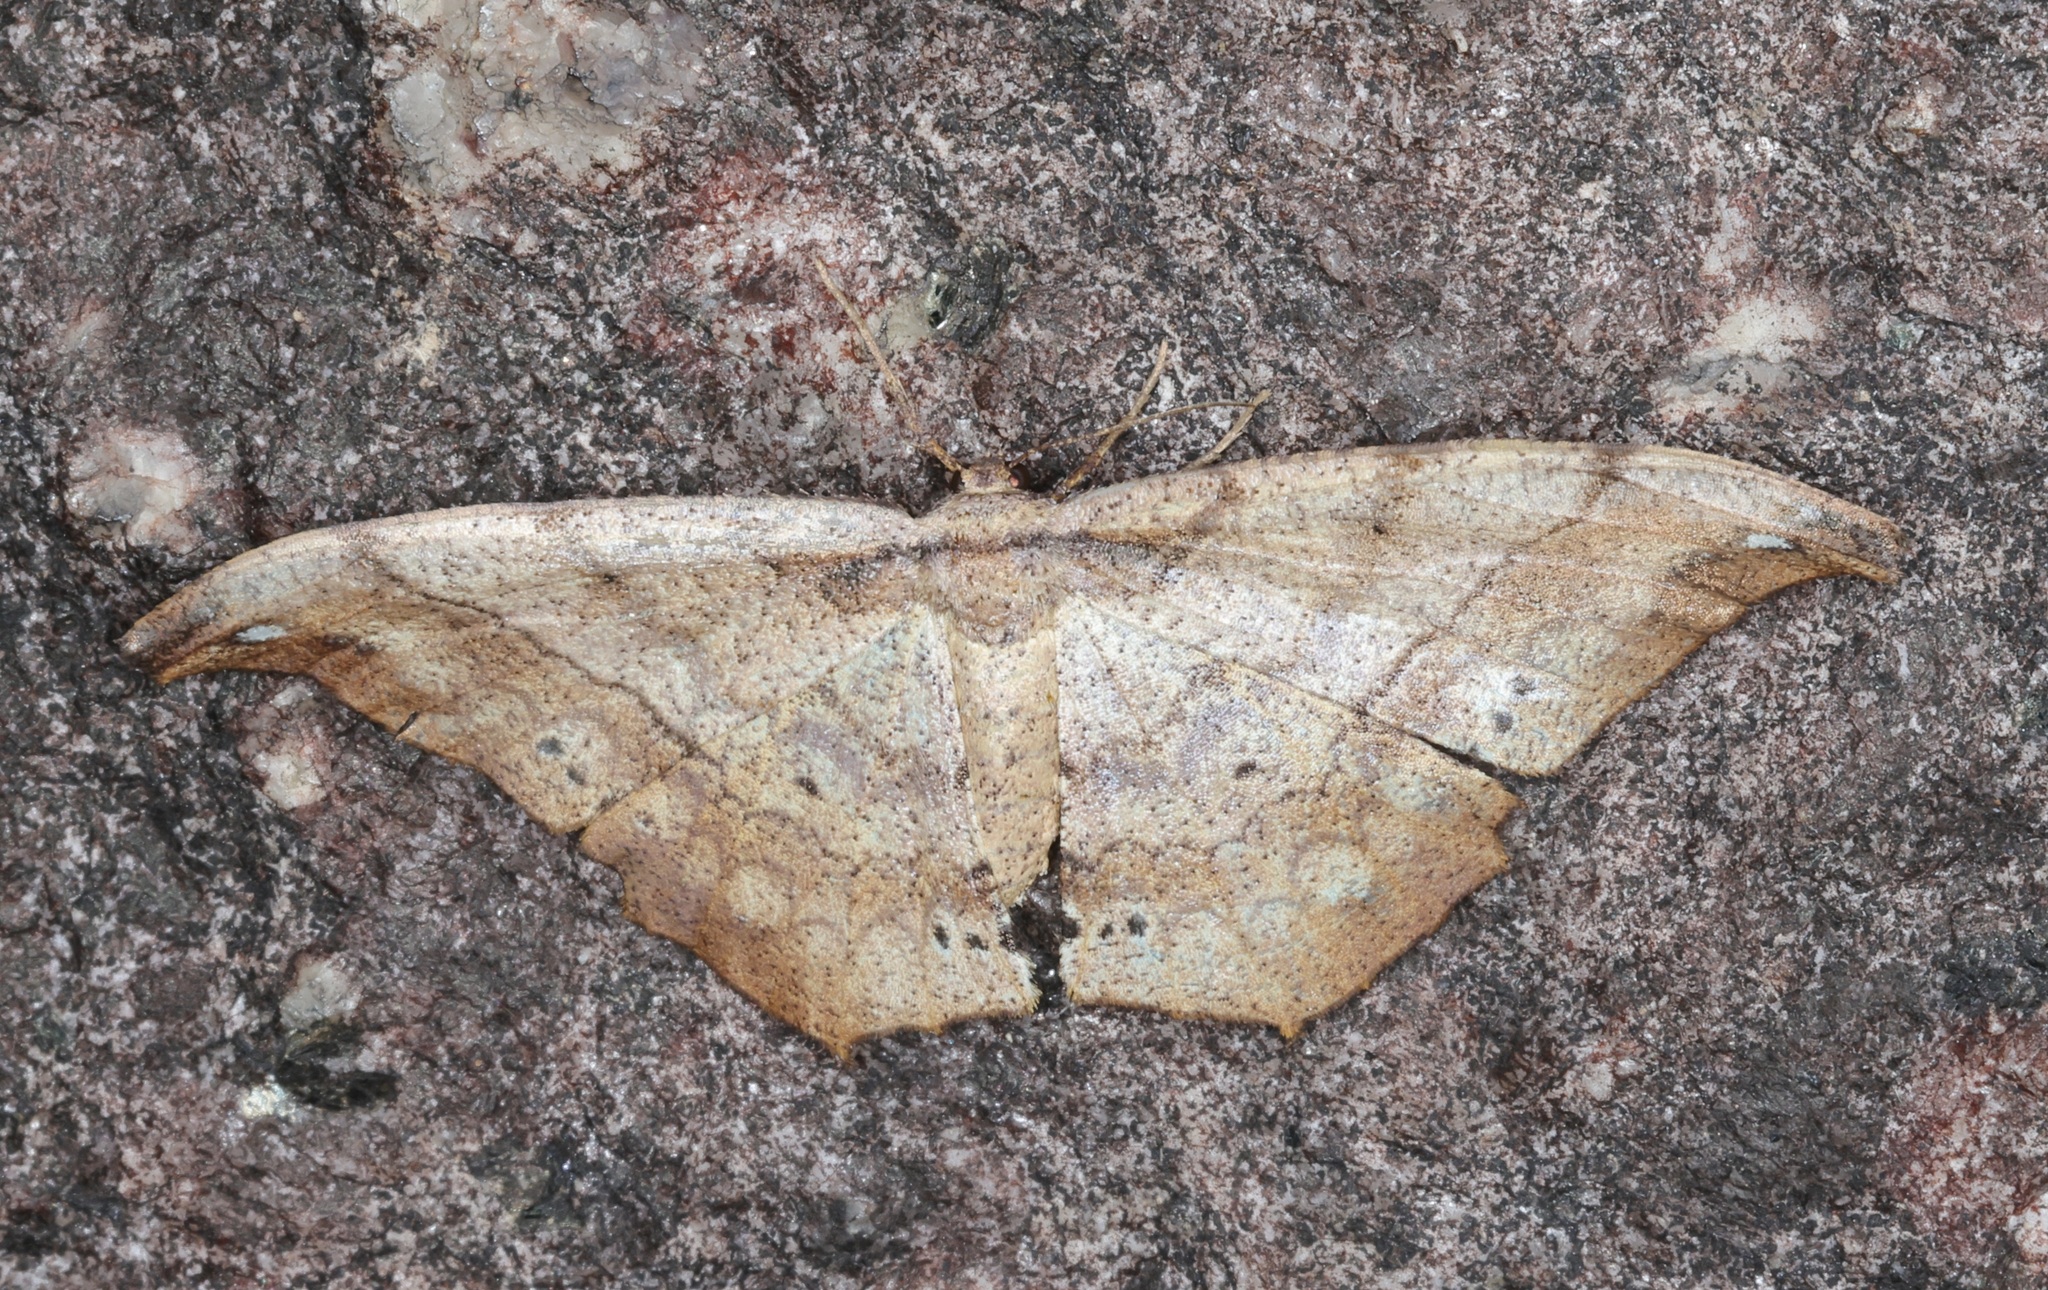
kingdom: Animalia
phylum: Arthropoda
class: Insecta
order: Lepidoptera
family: Geometridae
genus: Hyposidra
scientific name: Hyposidra infixaria
